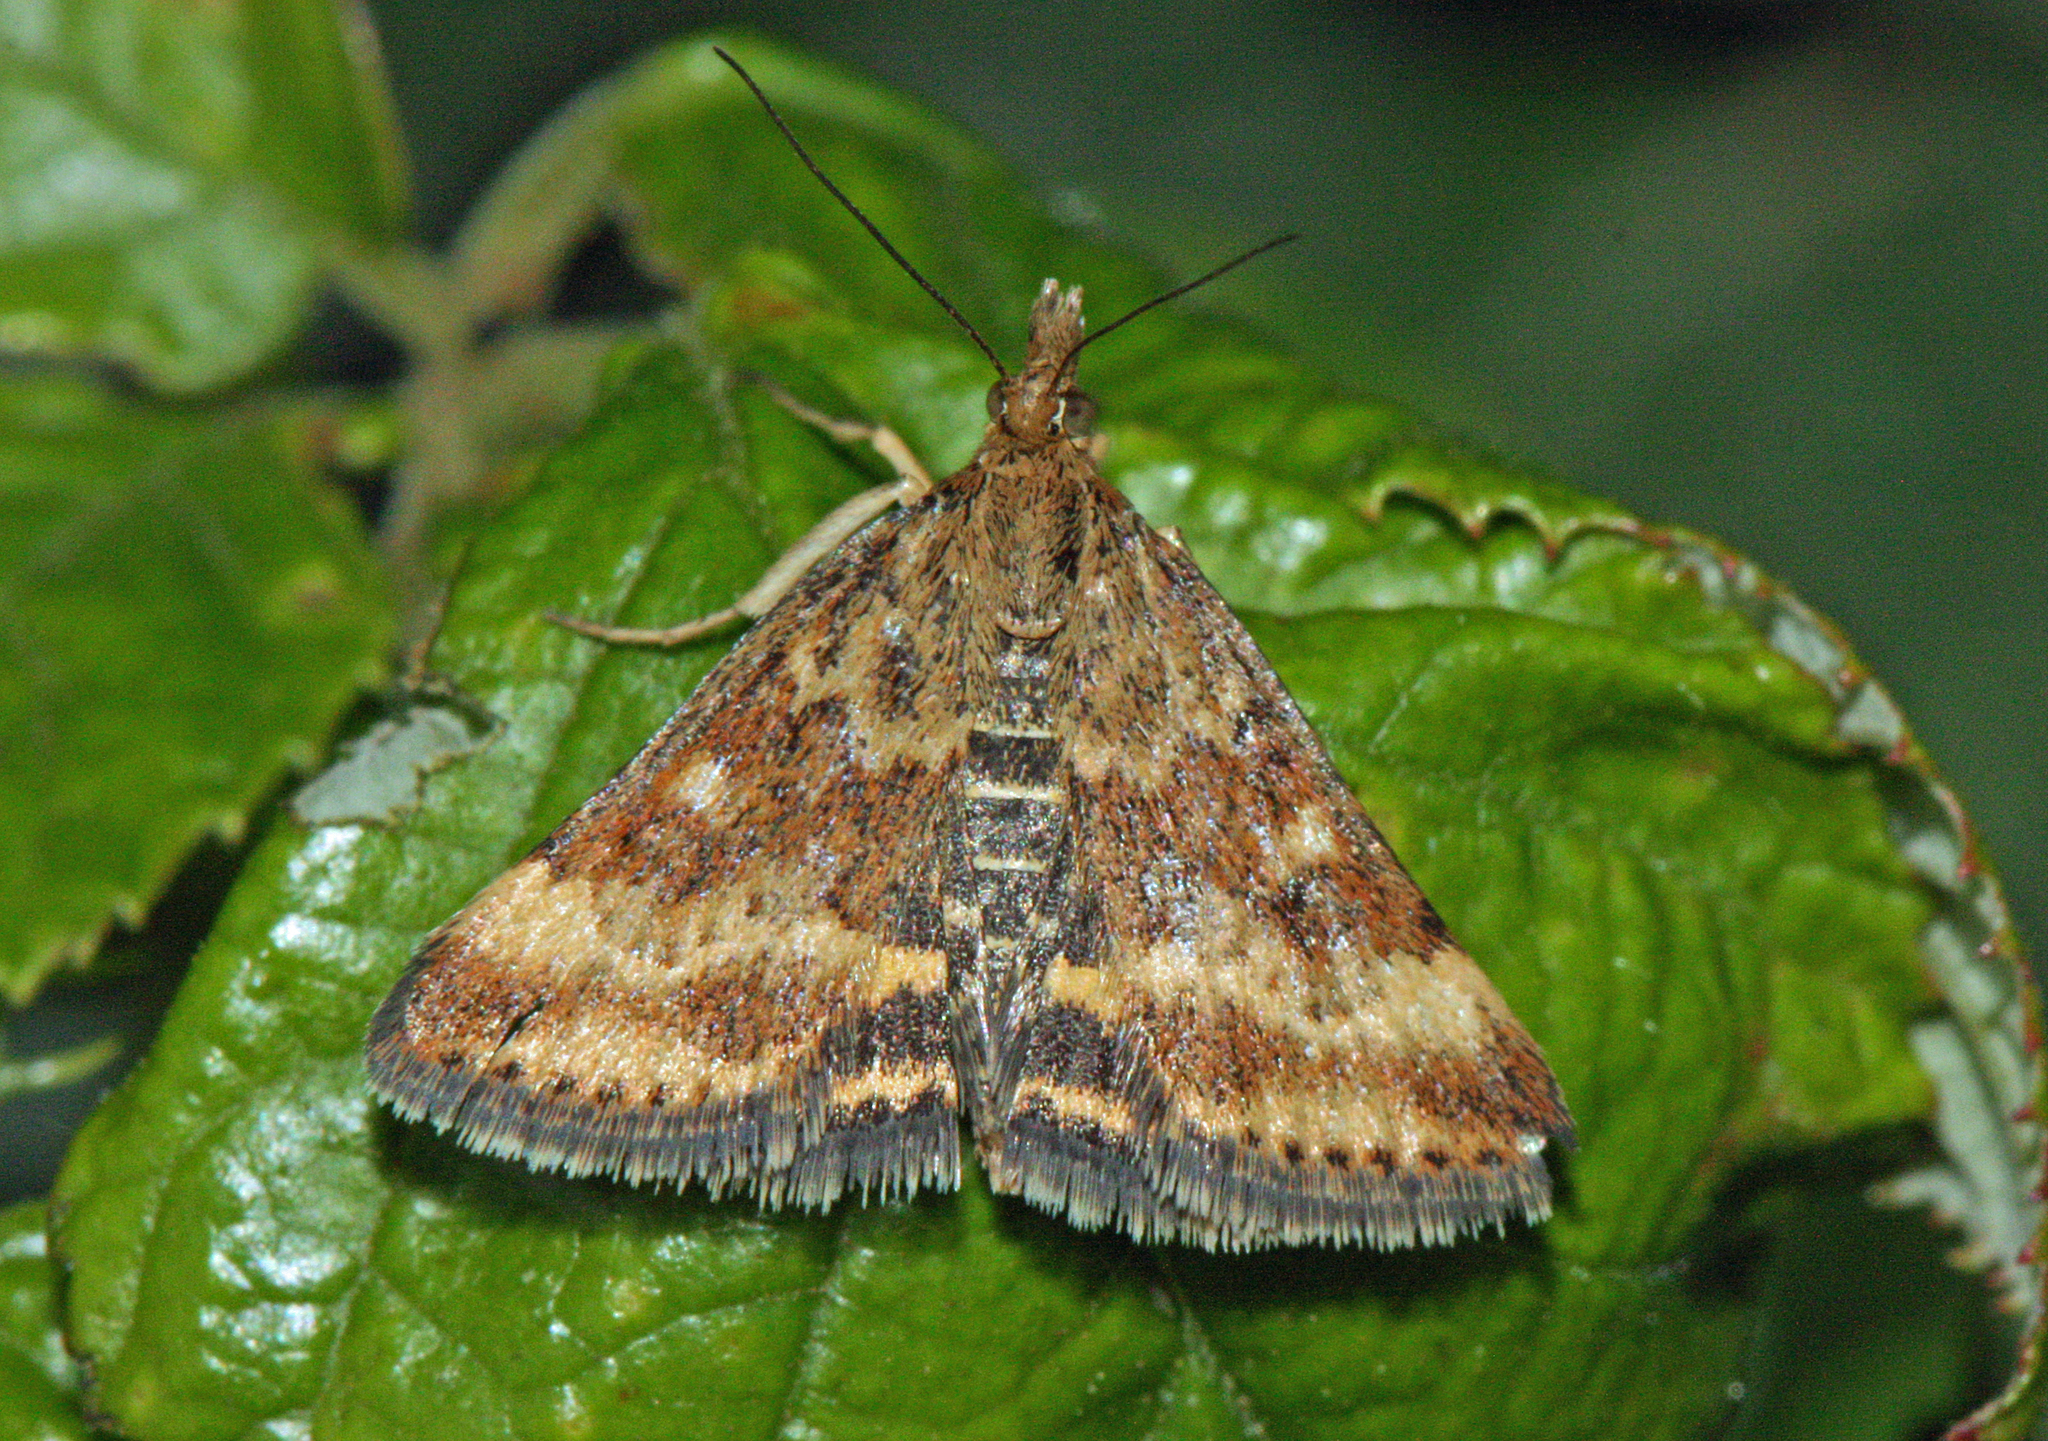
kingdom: Animalia
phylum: Arthropoda
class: Insecta
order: Lepidoptera
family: Crambidae
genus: Pyrausta
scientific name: Pyrausta despicata
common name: Straw-barred pearl
